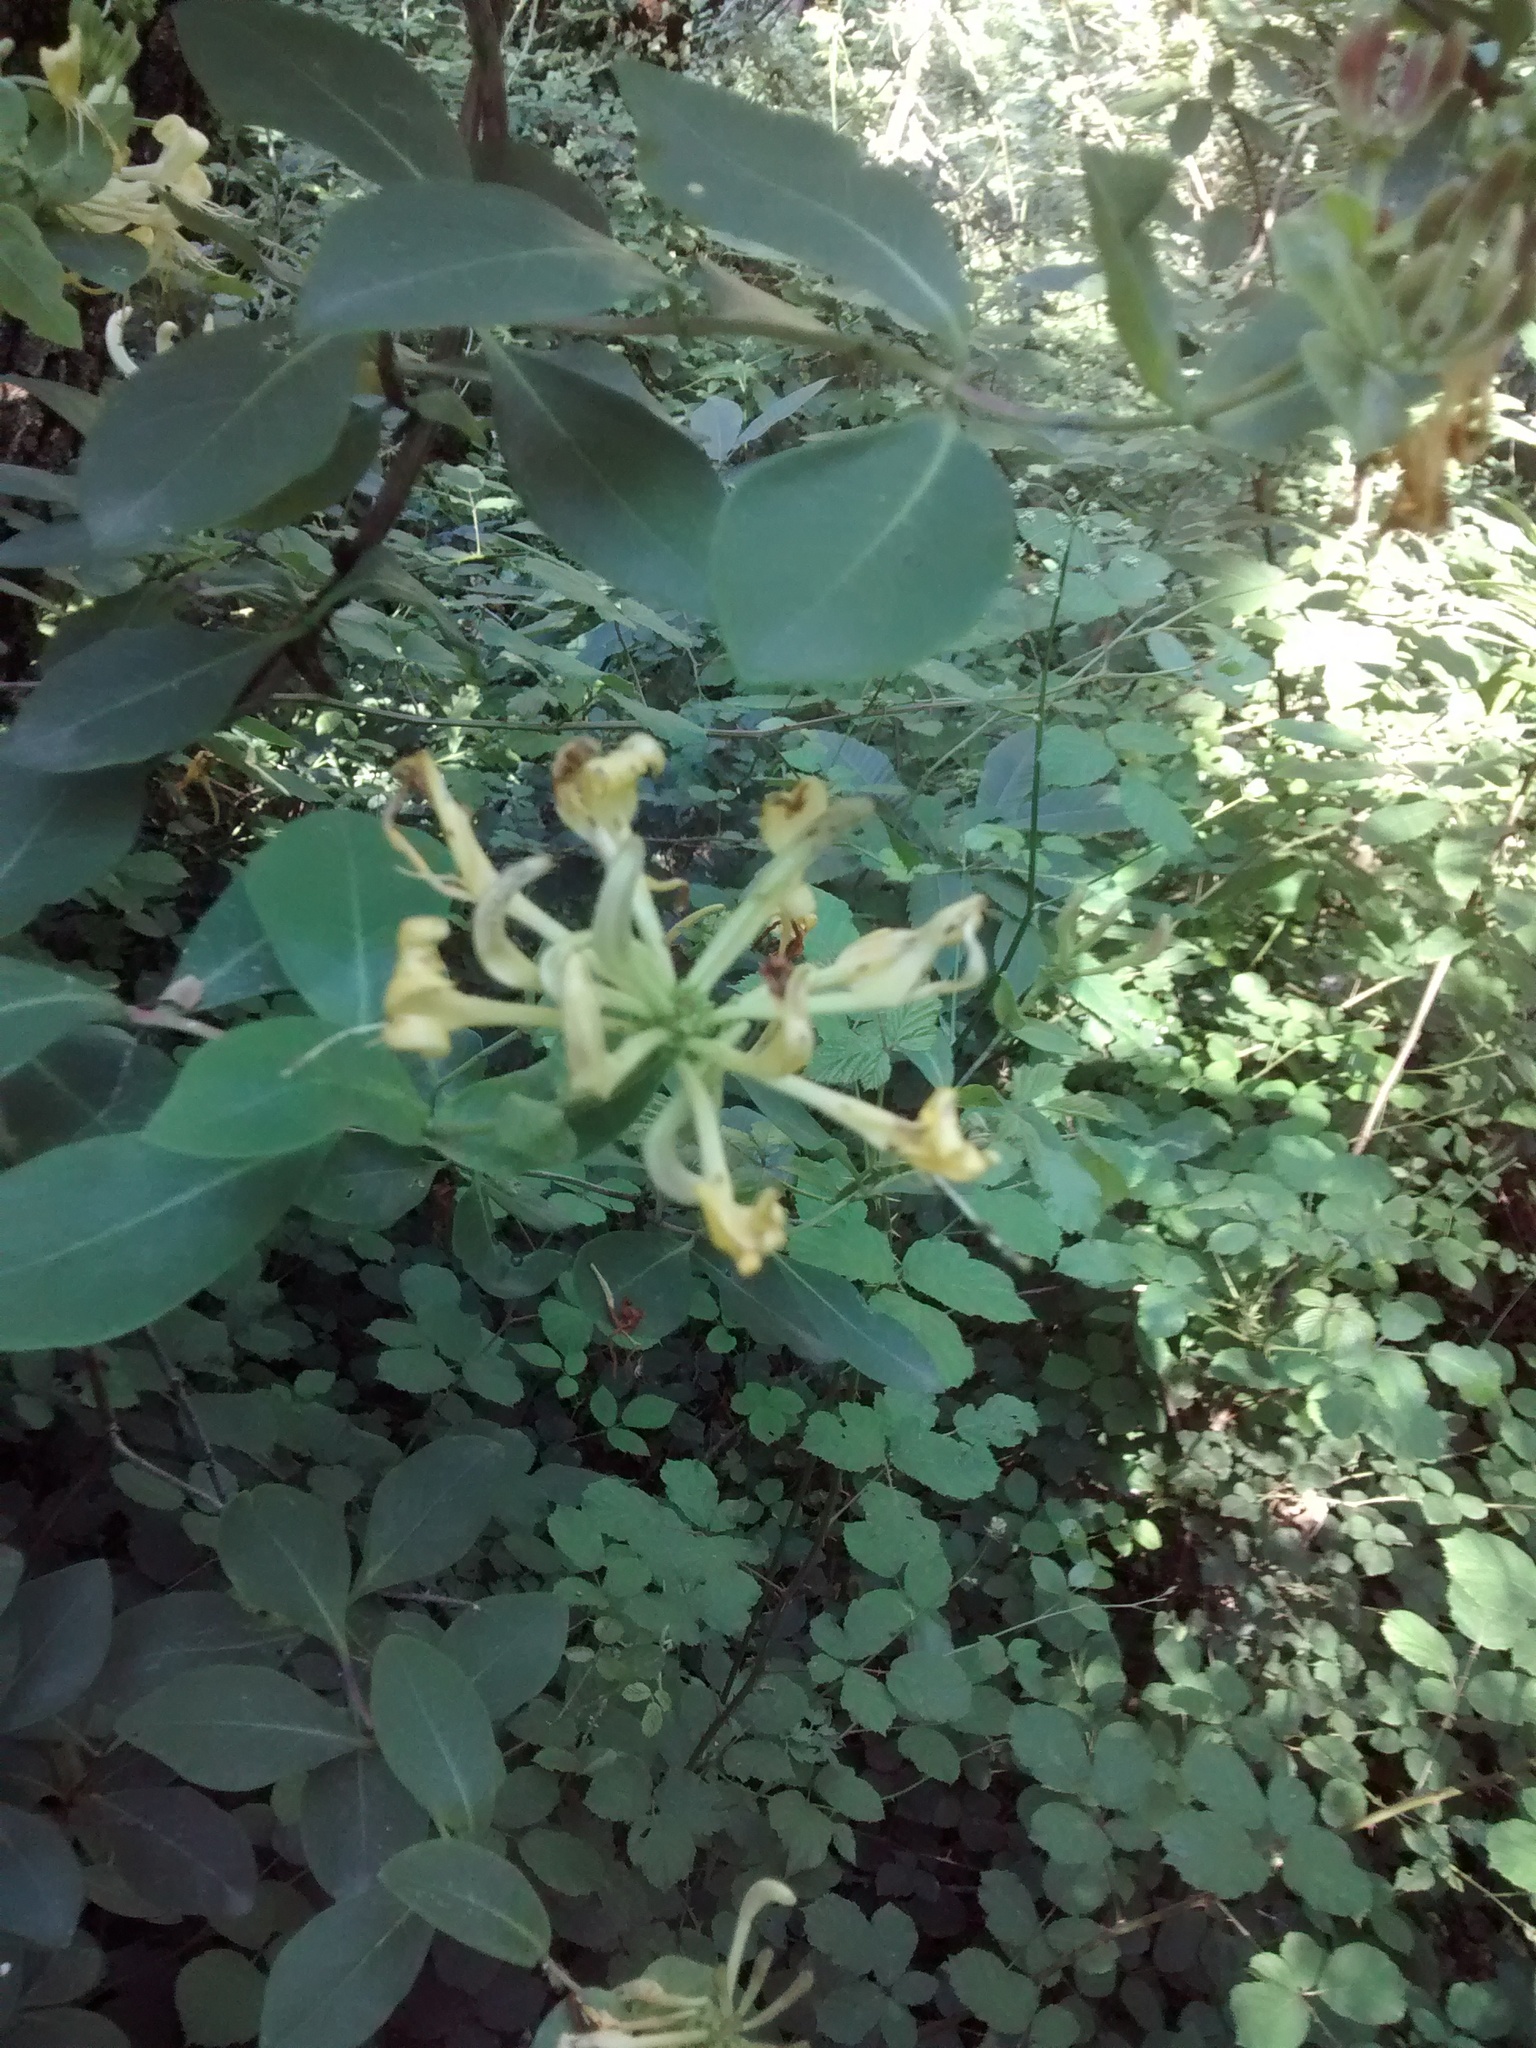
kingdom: Plantae
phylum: Tracheophyta
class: Magnoliopsida
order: Dipsacales
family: Caprifoliaceae
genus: Lonicera
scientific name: Lonicera periclymenum
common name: European honeysuckle
